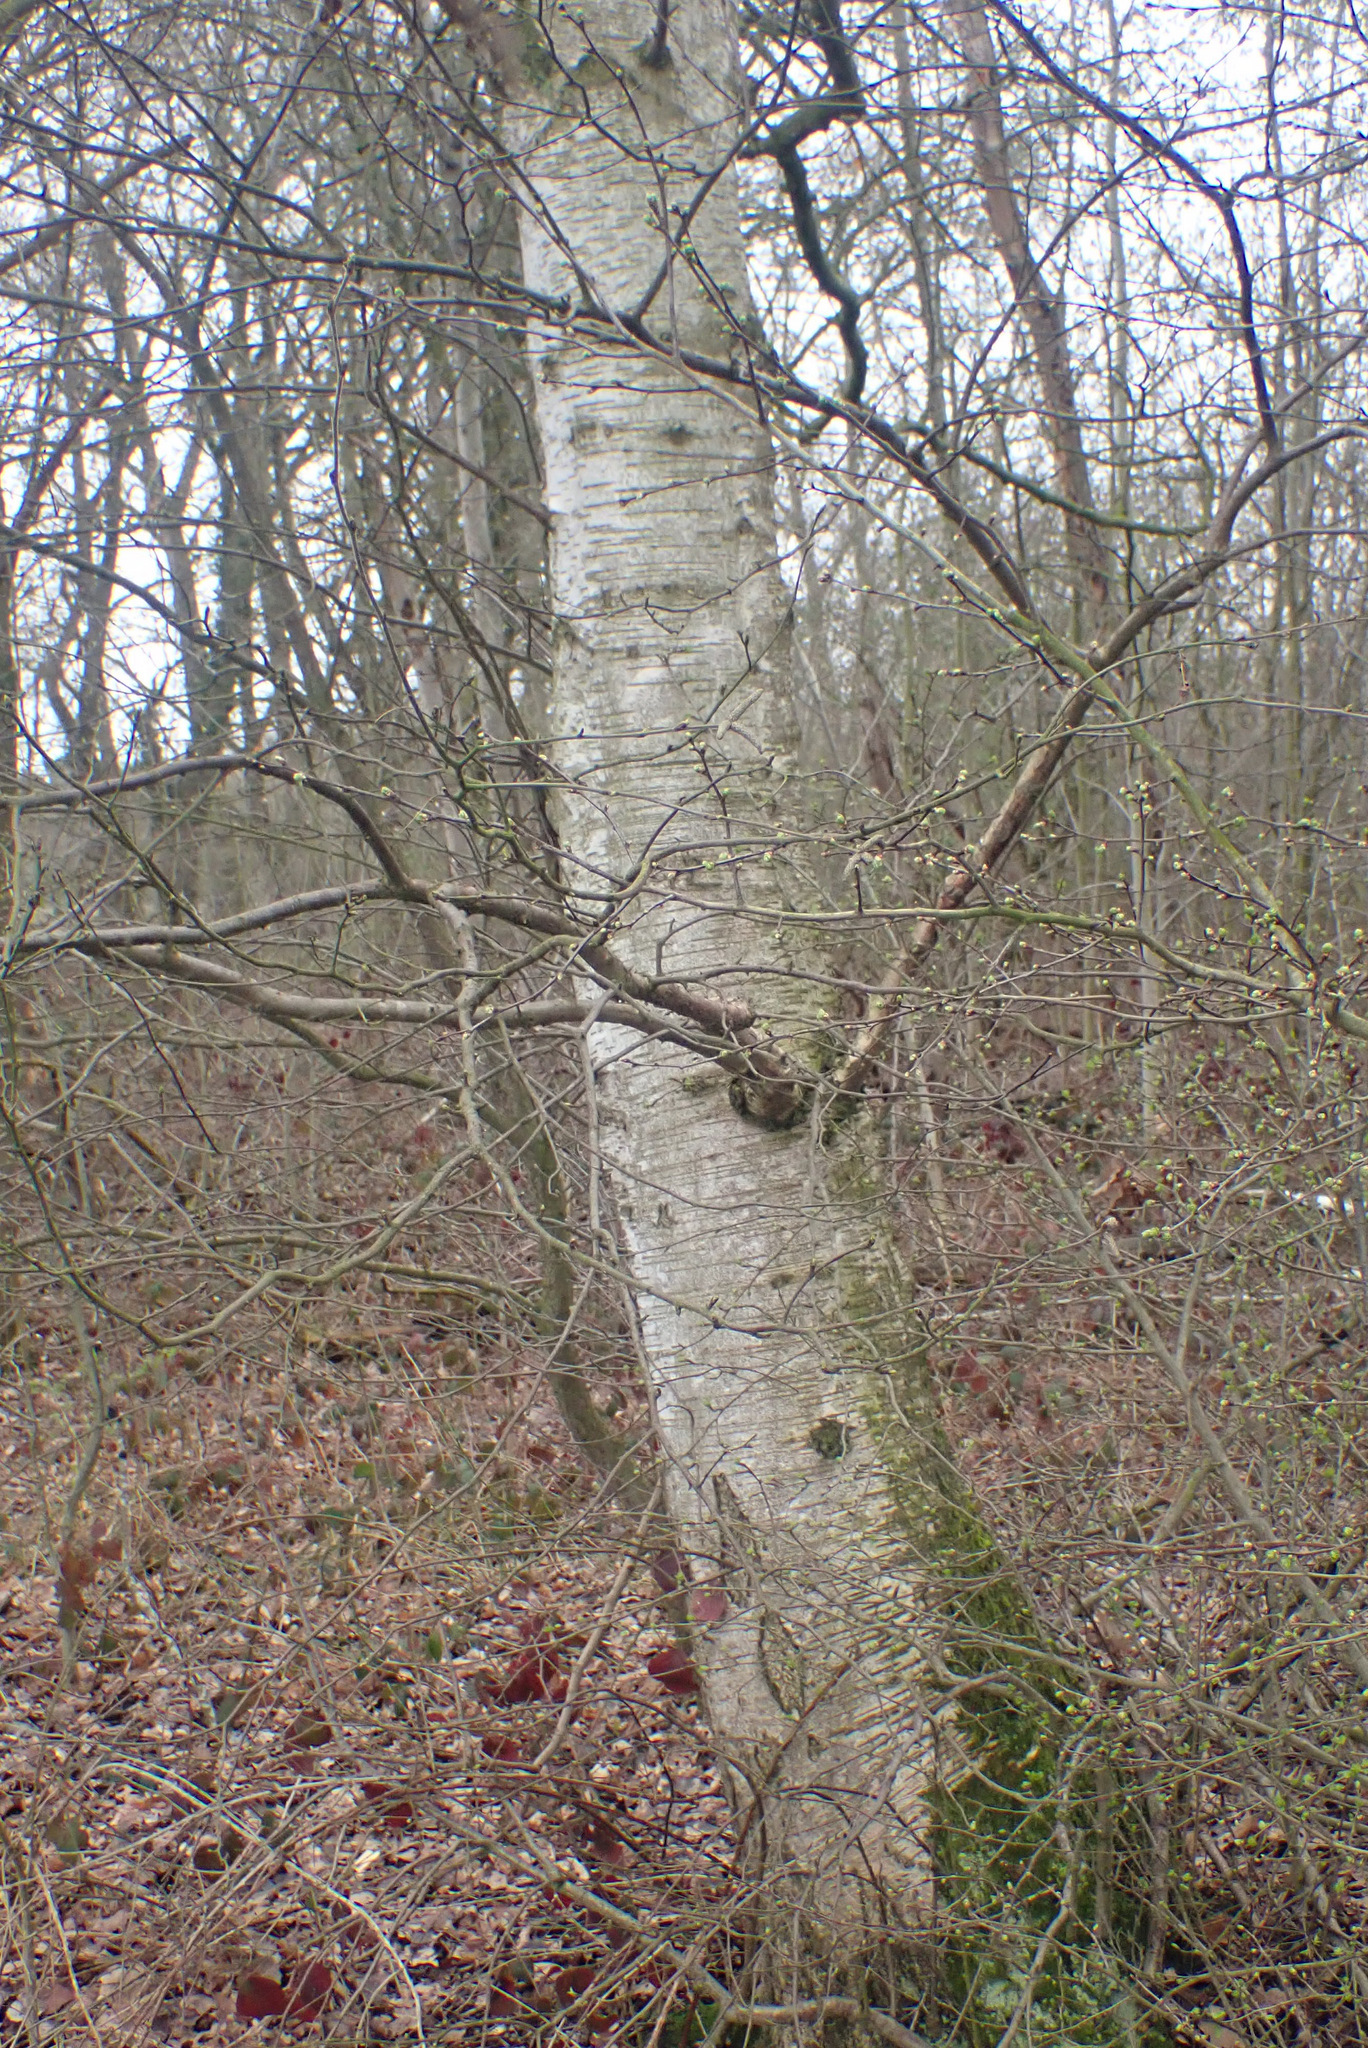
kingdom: Plantae
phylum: Tracheophyta
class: Magnoliopsida
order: Fagales
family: Betulaceae
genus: Betula
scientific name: Betula pubescens
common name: Downy birch
